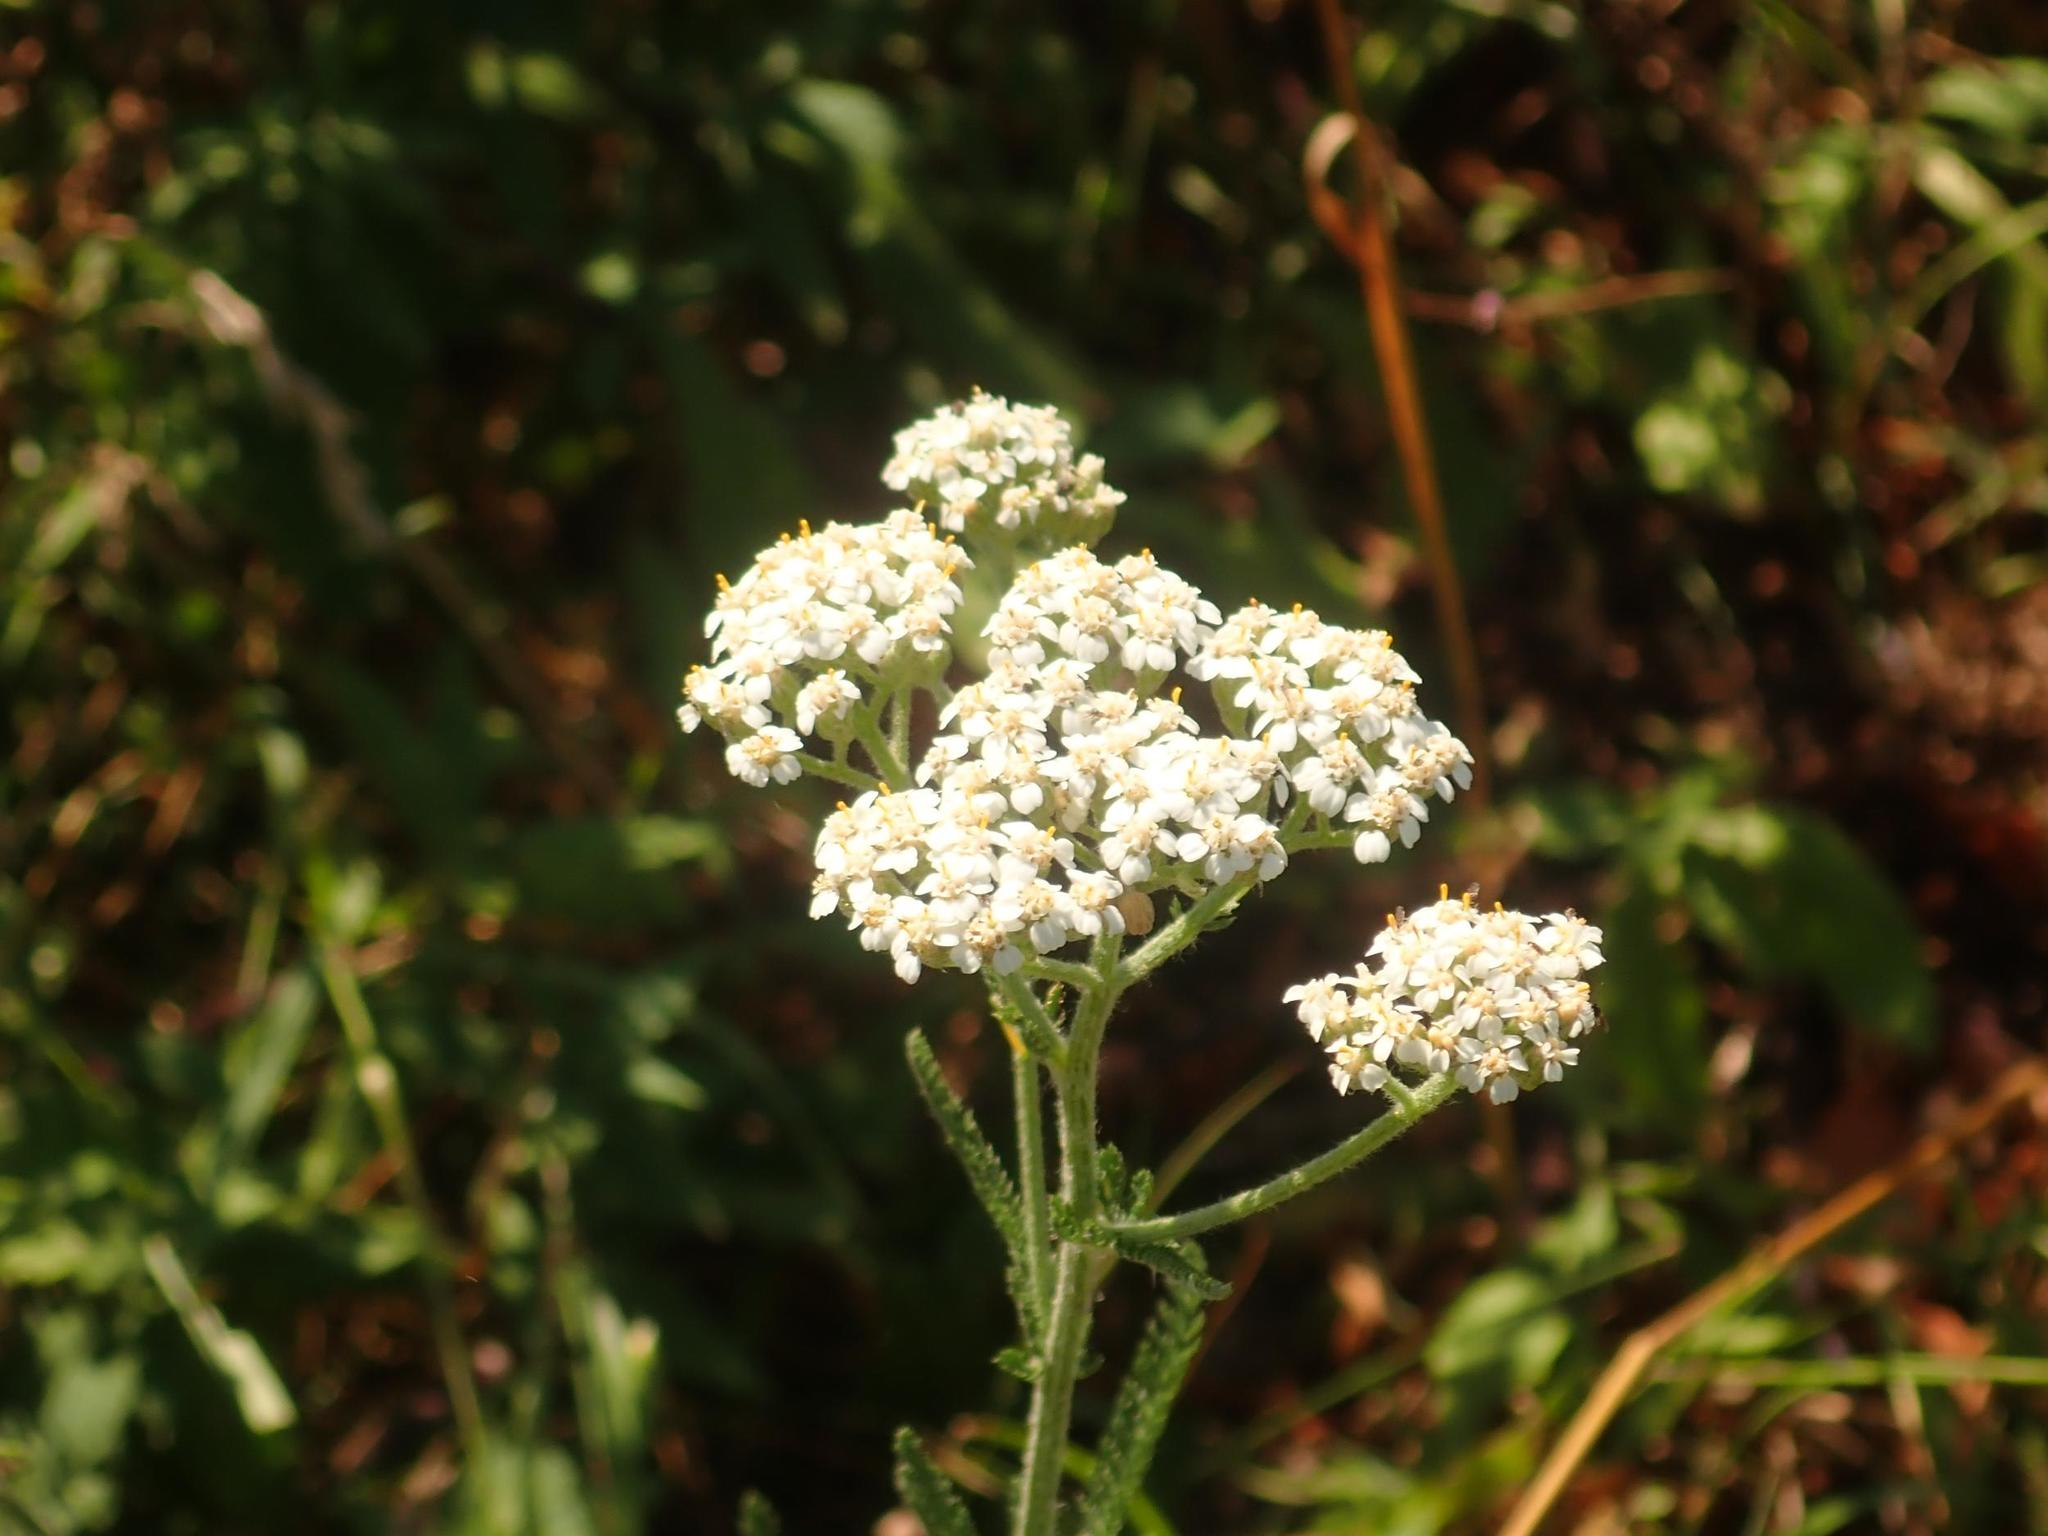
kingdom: Plantae
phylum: Tracheophyta
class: Magnoliopsida
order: Asterales
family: Asteraceae
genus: Achillea
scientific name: Achillea millefolium
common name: Yarrow
